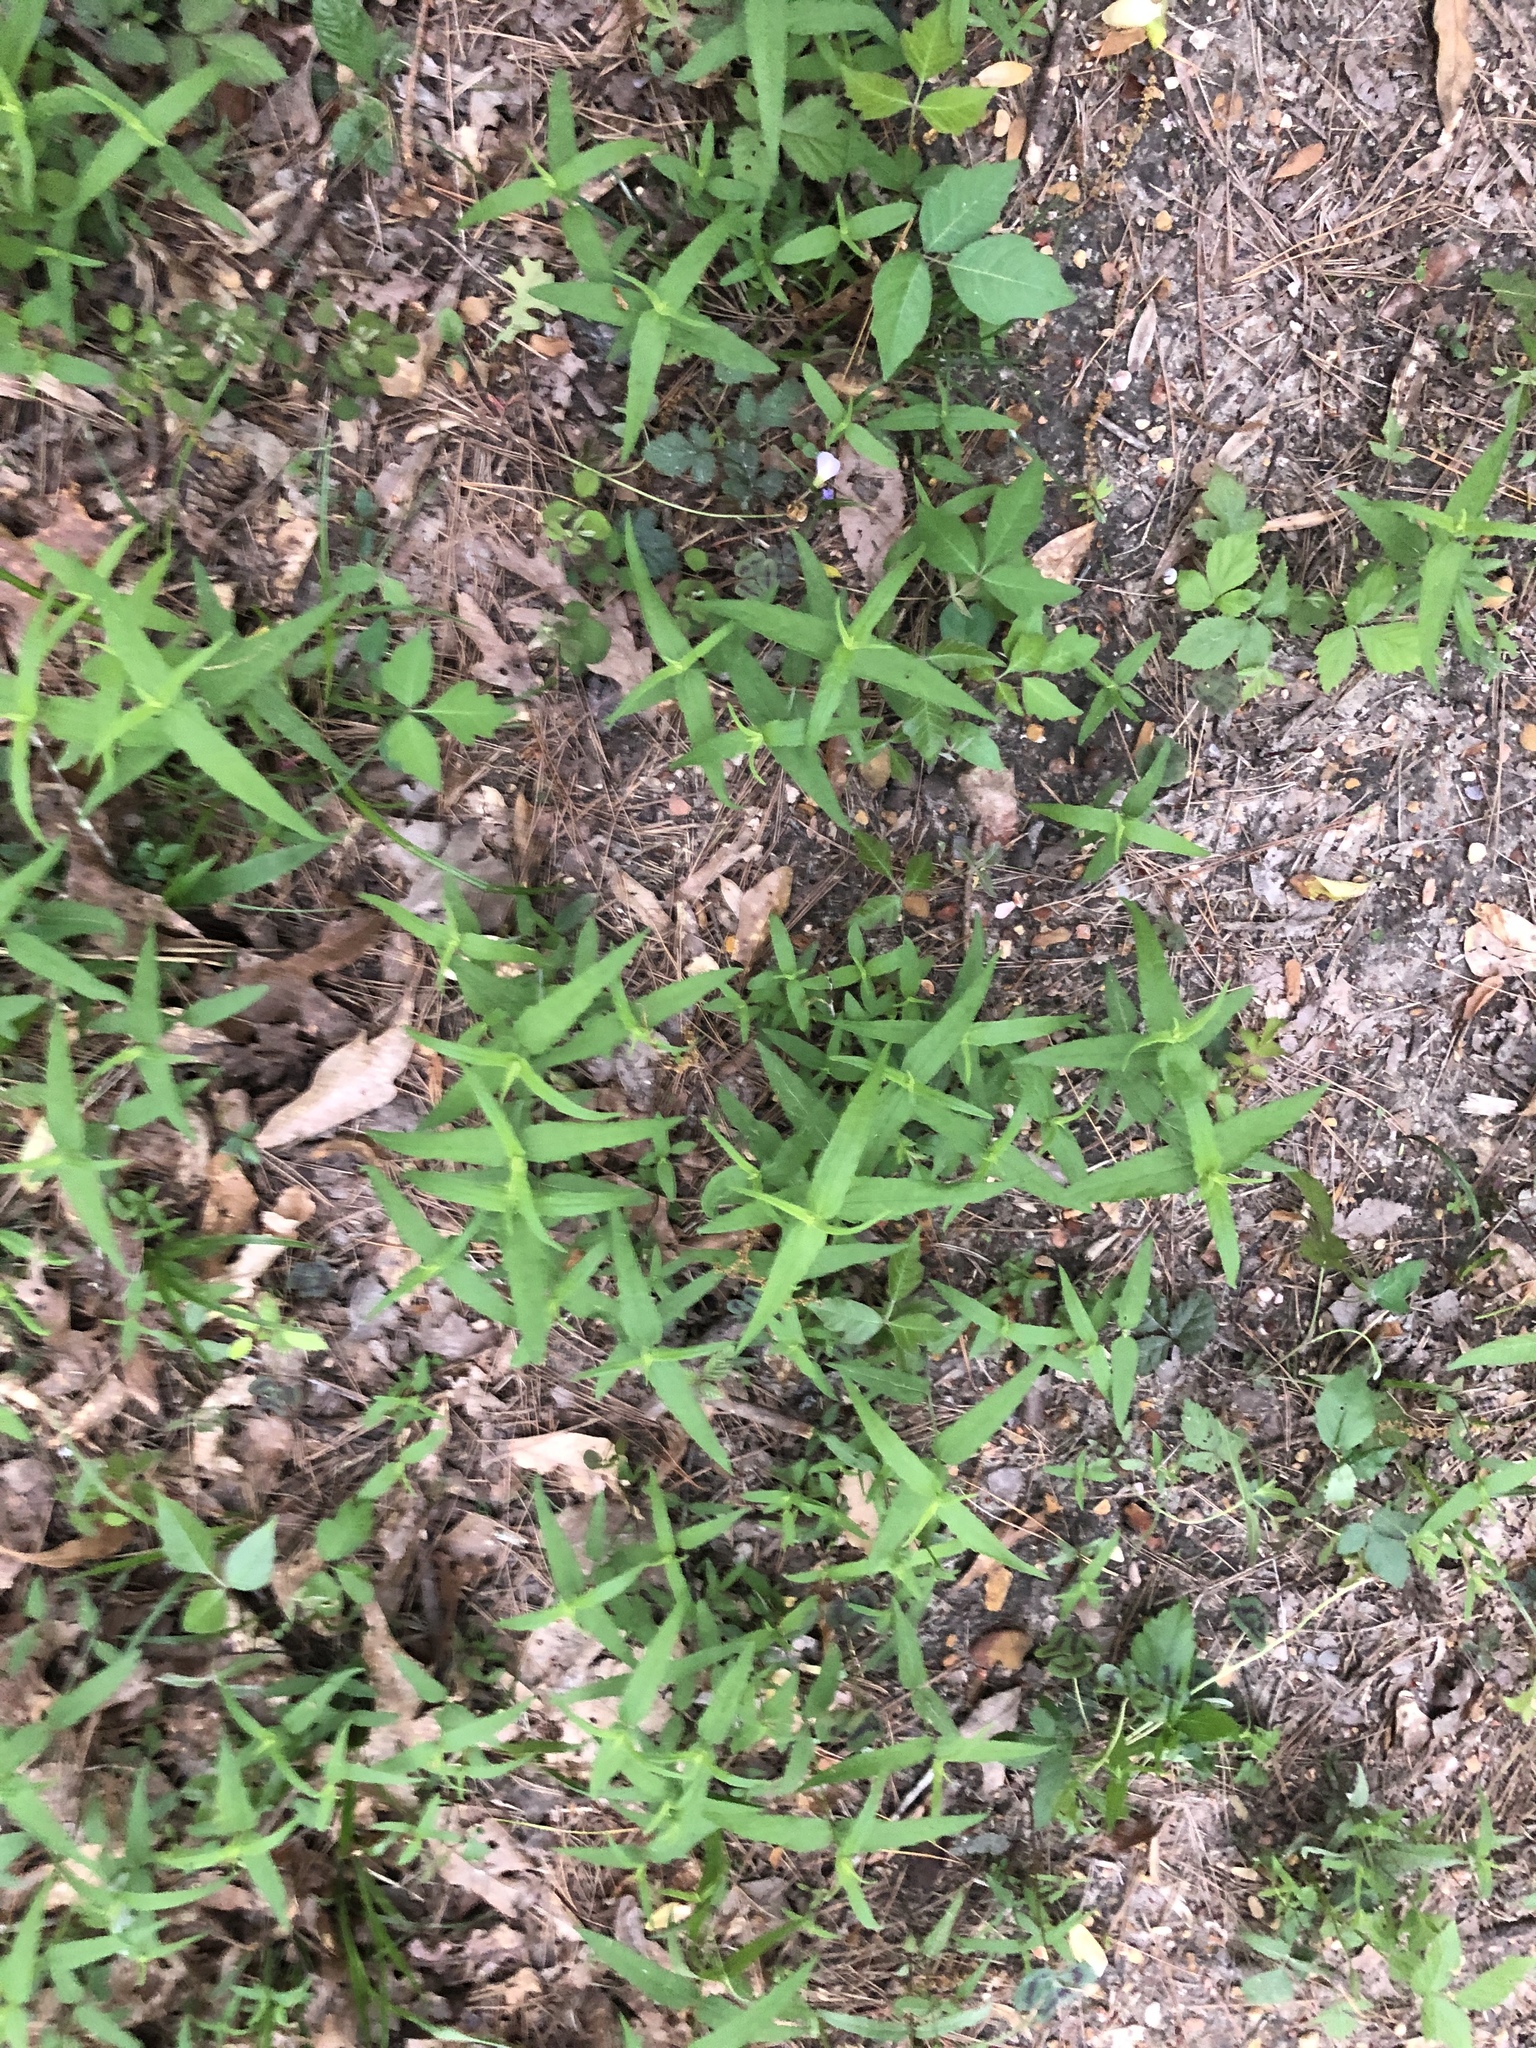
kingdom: Plantae
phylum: Tracheophyta
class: Magnoliopsida
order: Asterales
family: Asteraceae
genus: Helianthus
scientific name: Helianthus divaricatus
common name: Divergent sunflower
